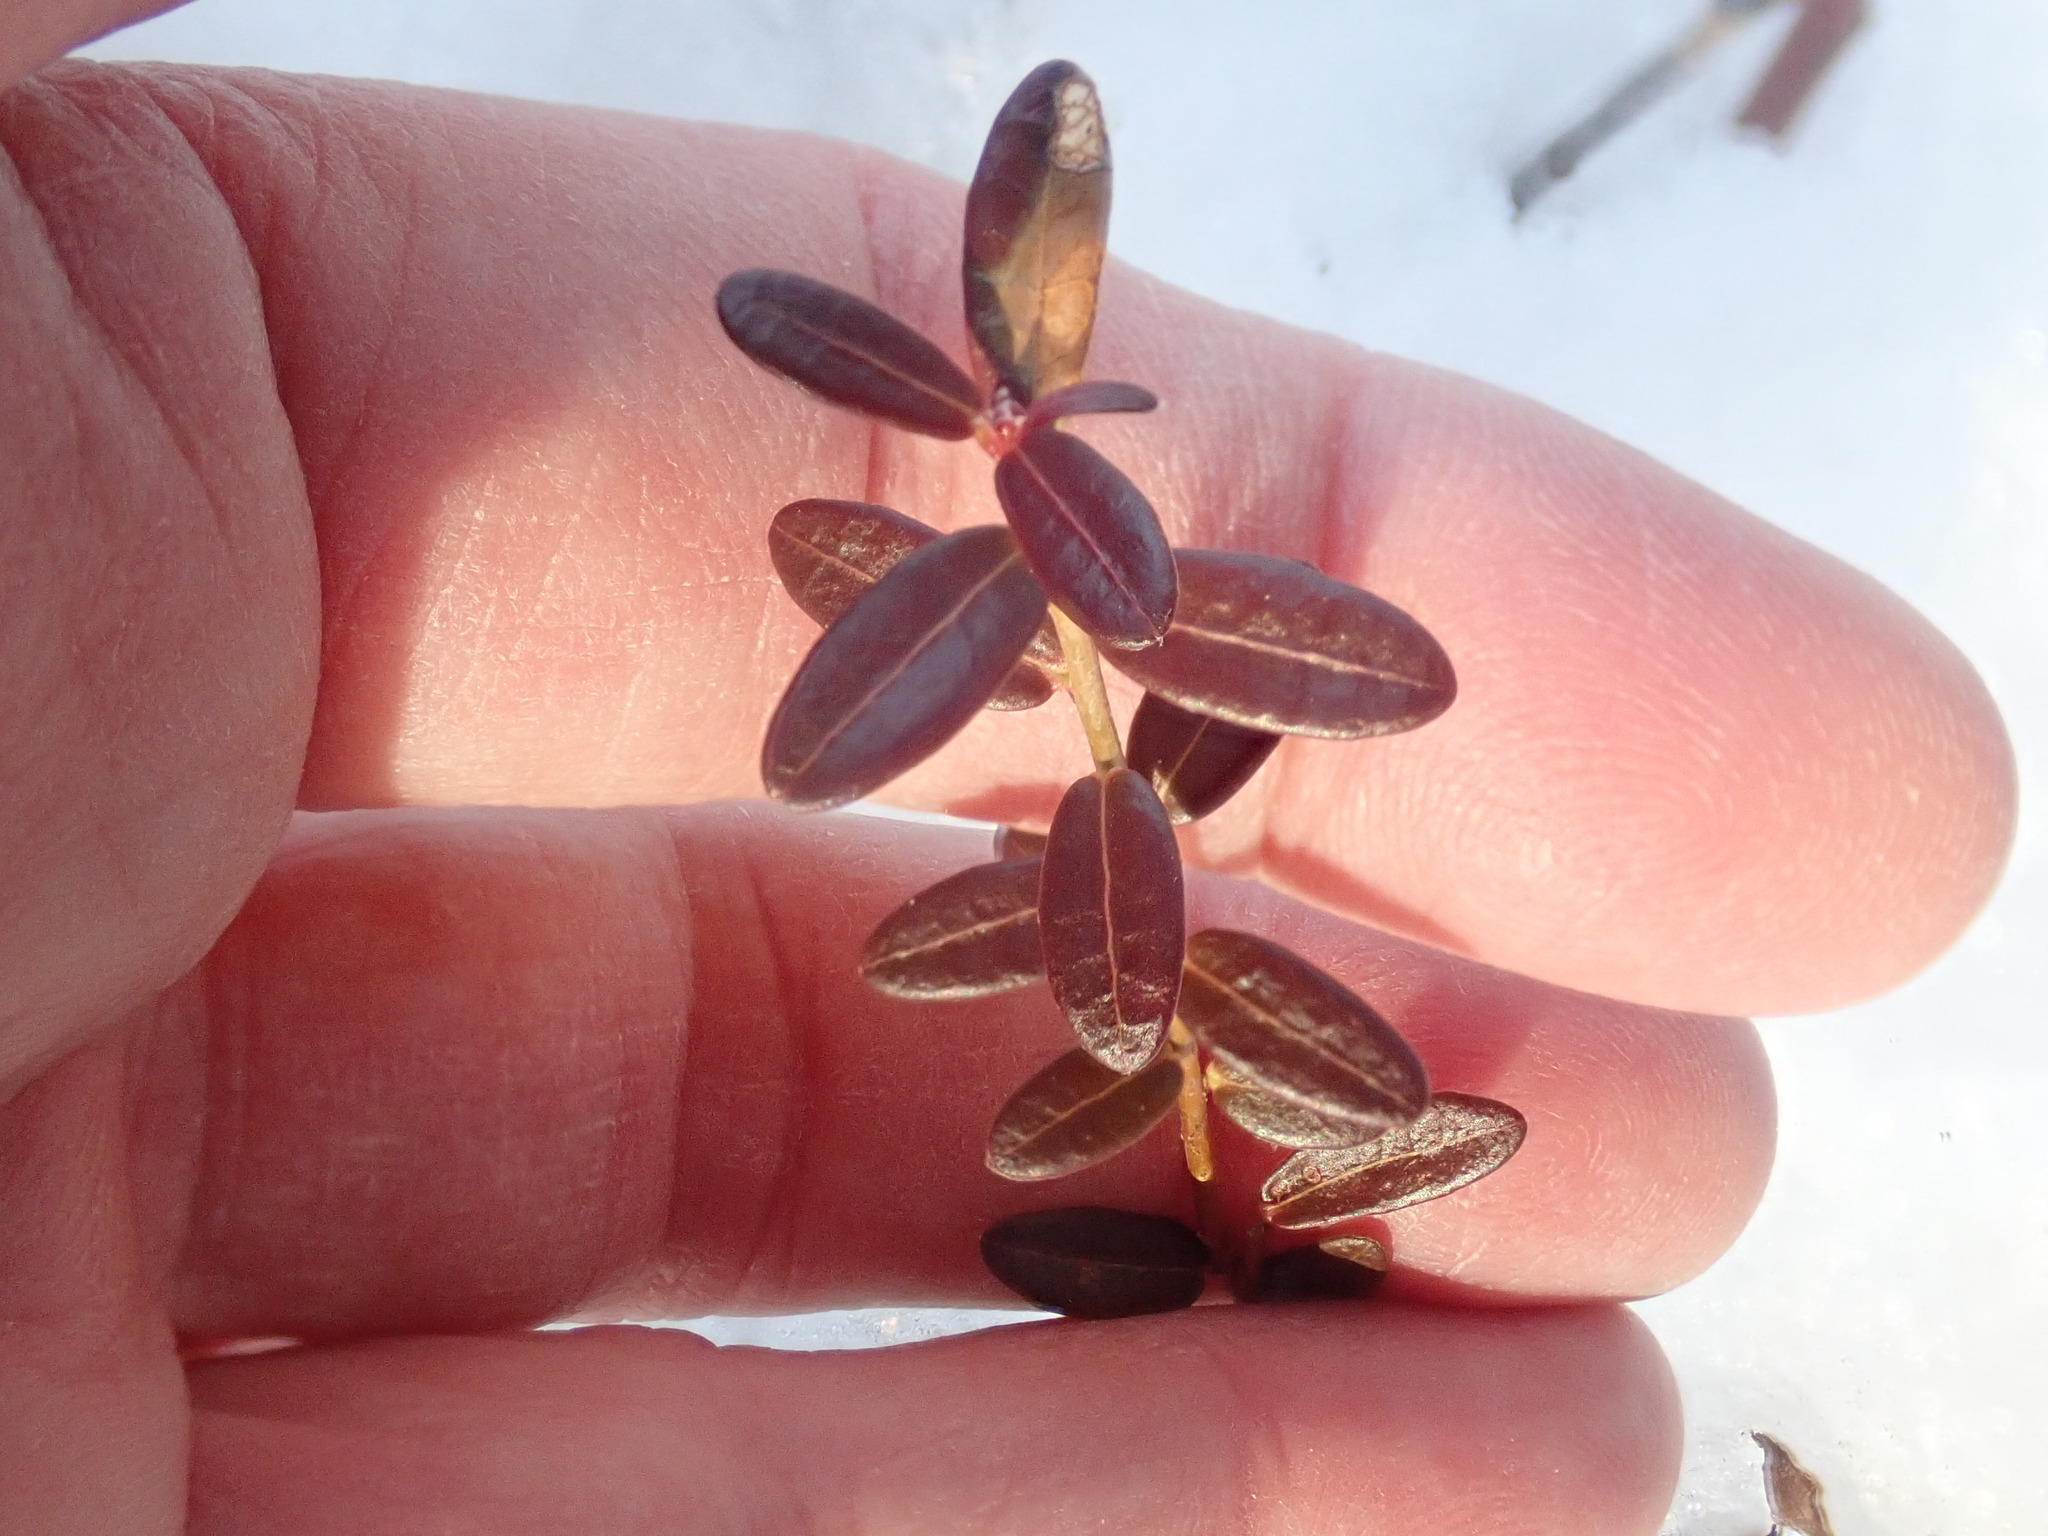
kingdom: Plantae
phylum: Tracheophyta
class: Magnoliopsida
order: Ericales
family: Ericaceae
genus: Vaccinium
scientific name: Vaccinium macrocarpon
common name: American cranberry
